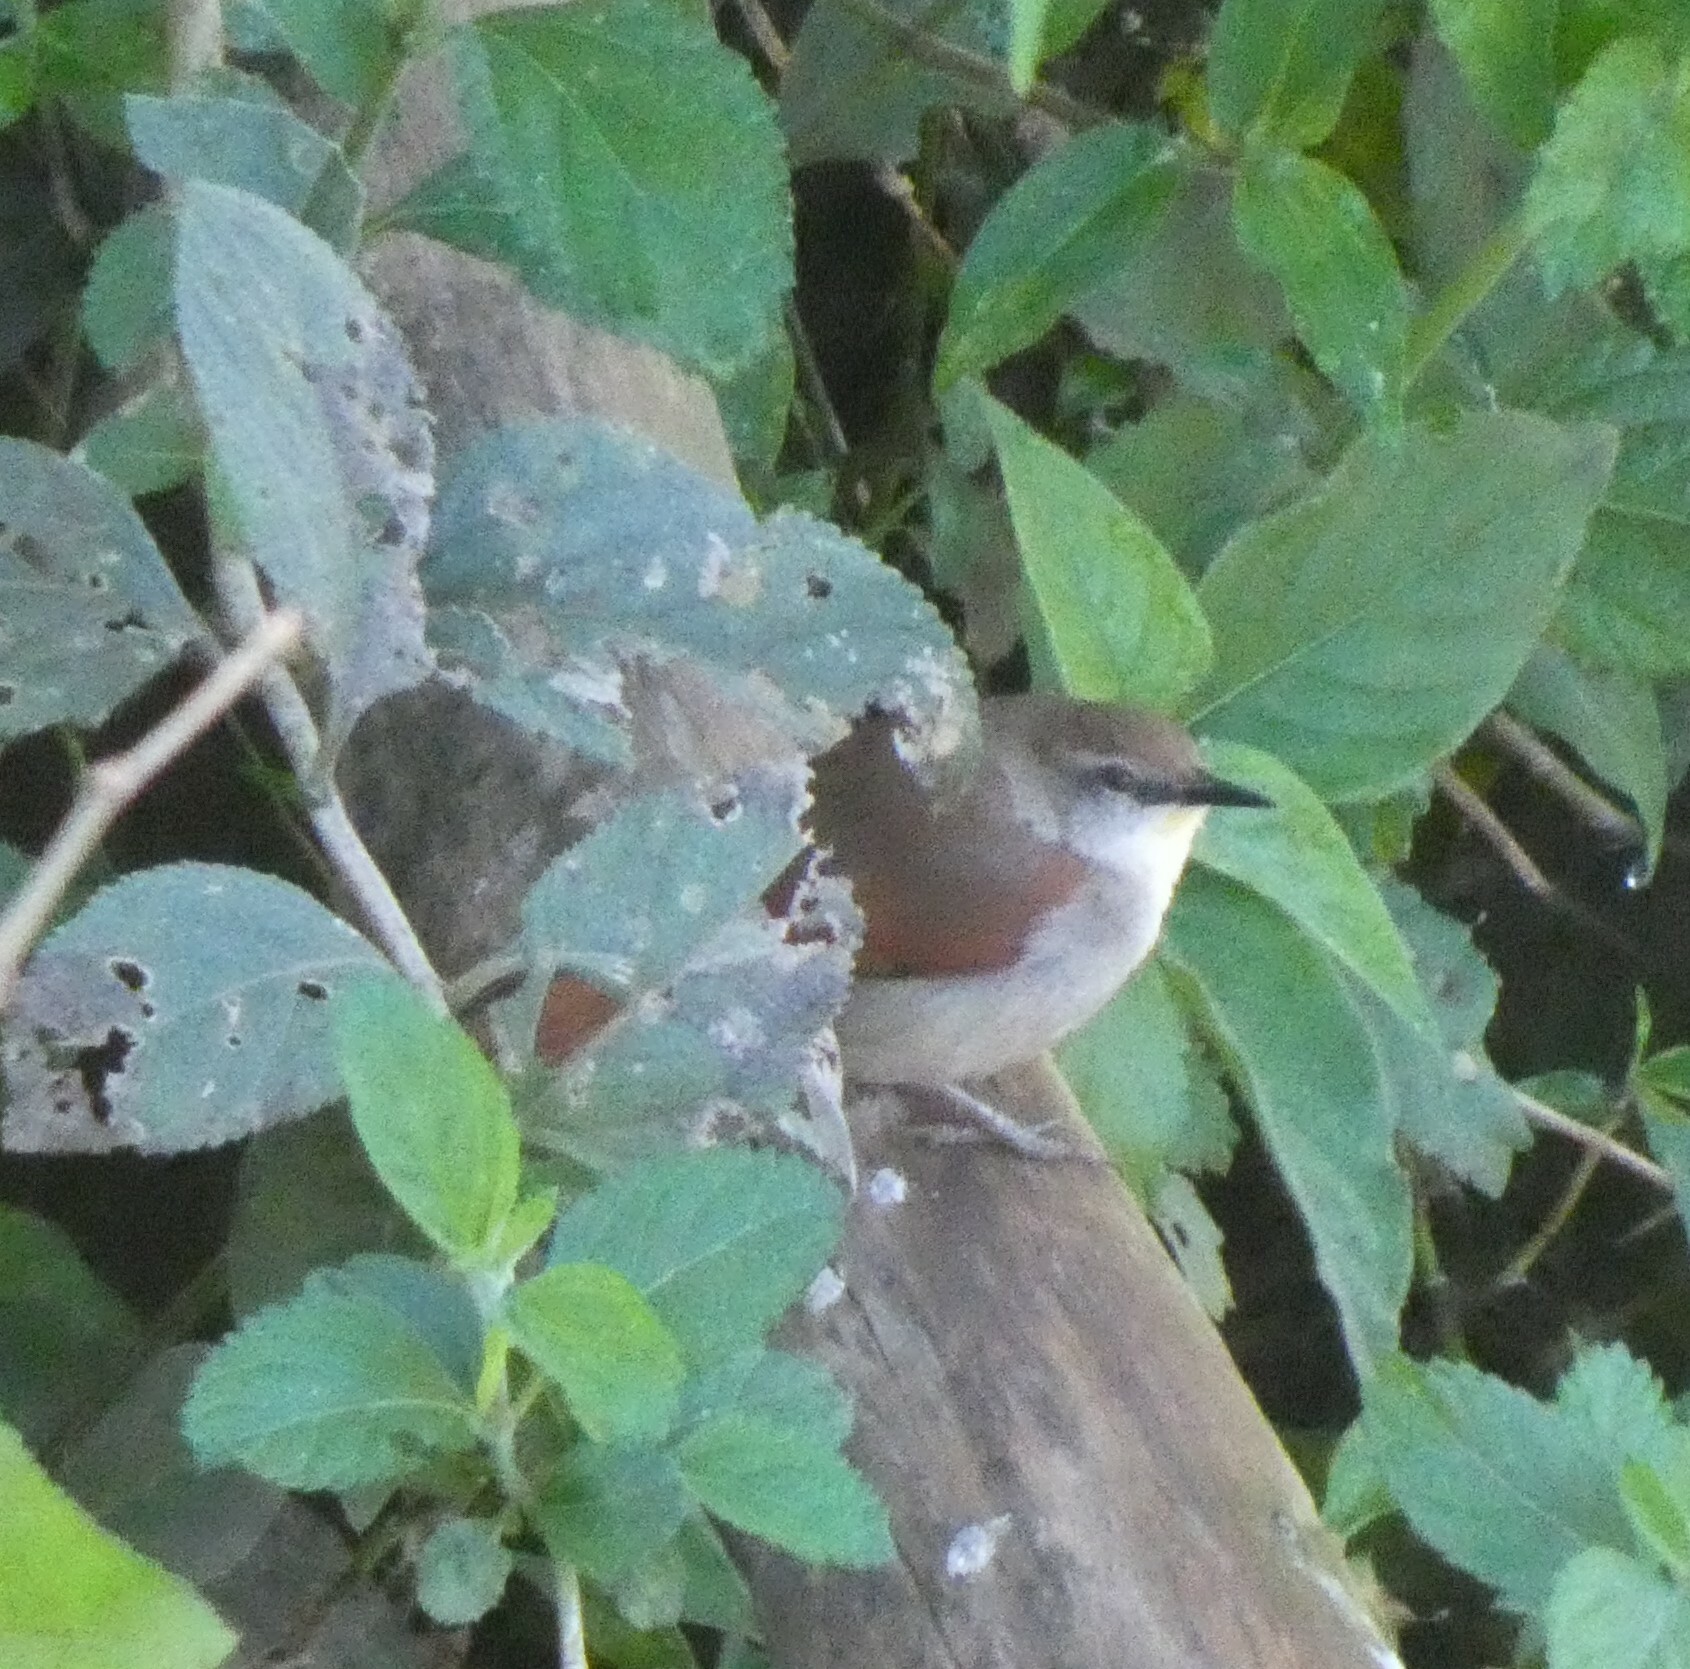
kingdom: Animalia
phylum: Chordata
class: Aves
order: Passeriformes
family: Furnariidae
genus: Certhiaxis
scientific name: Certhiaxis cinnamomeus
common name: Yellow-chinned spinetail
